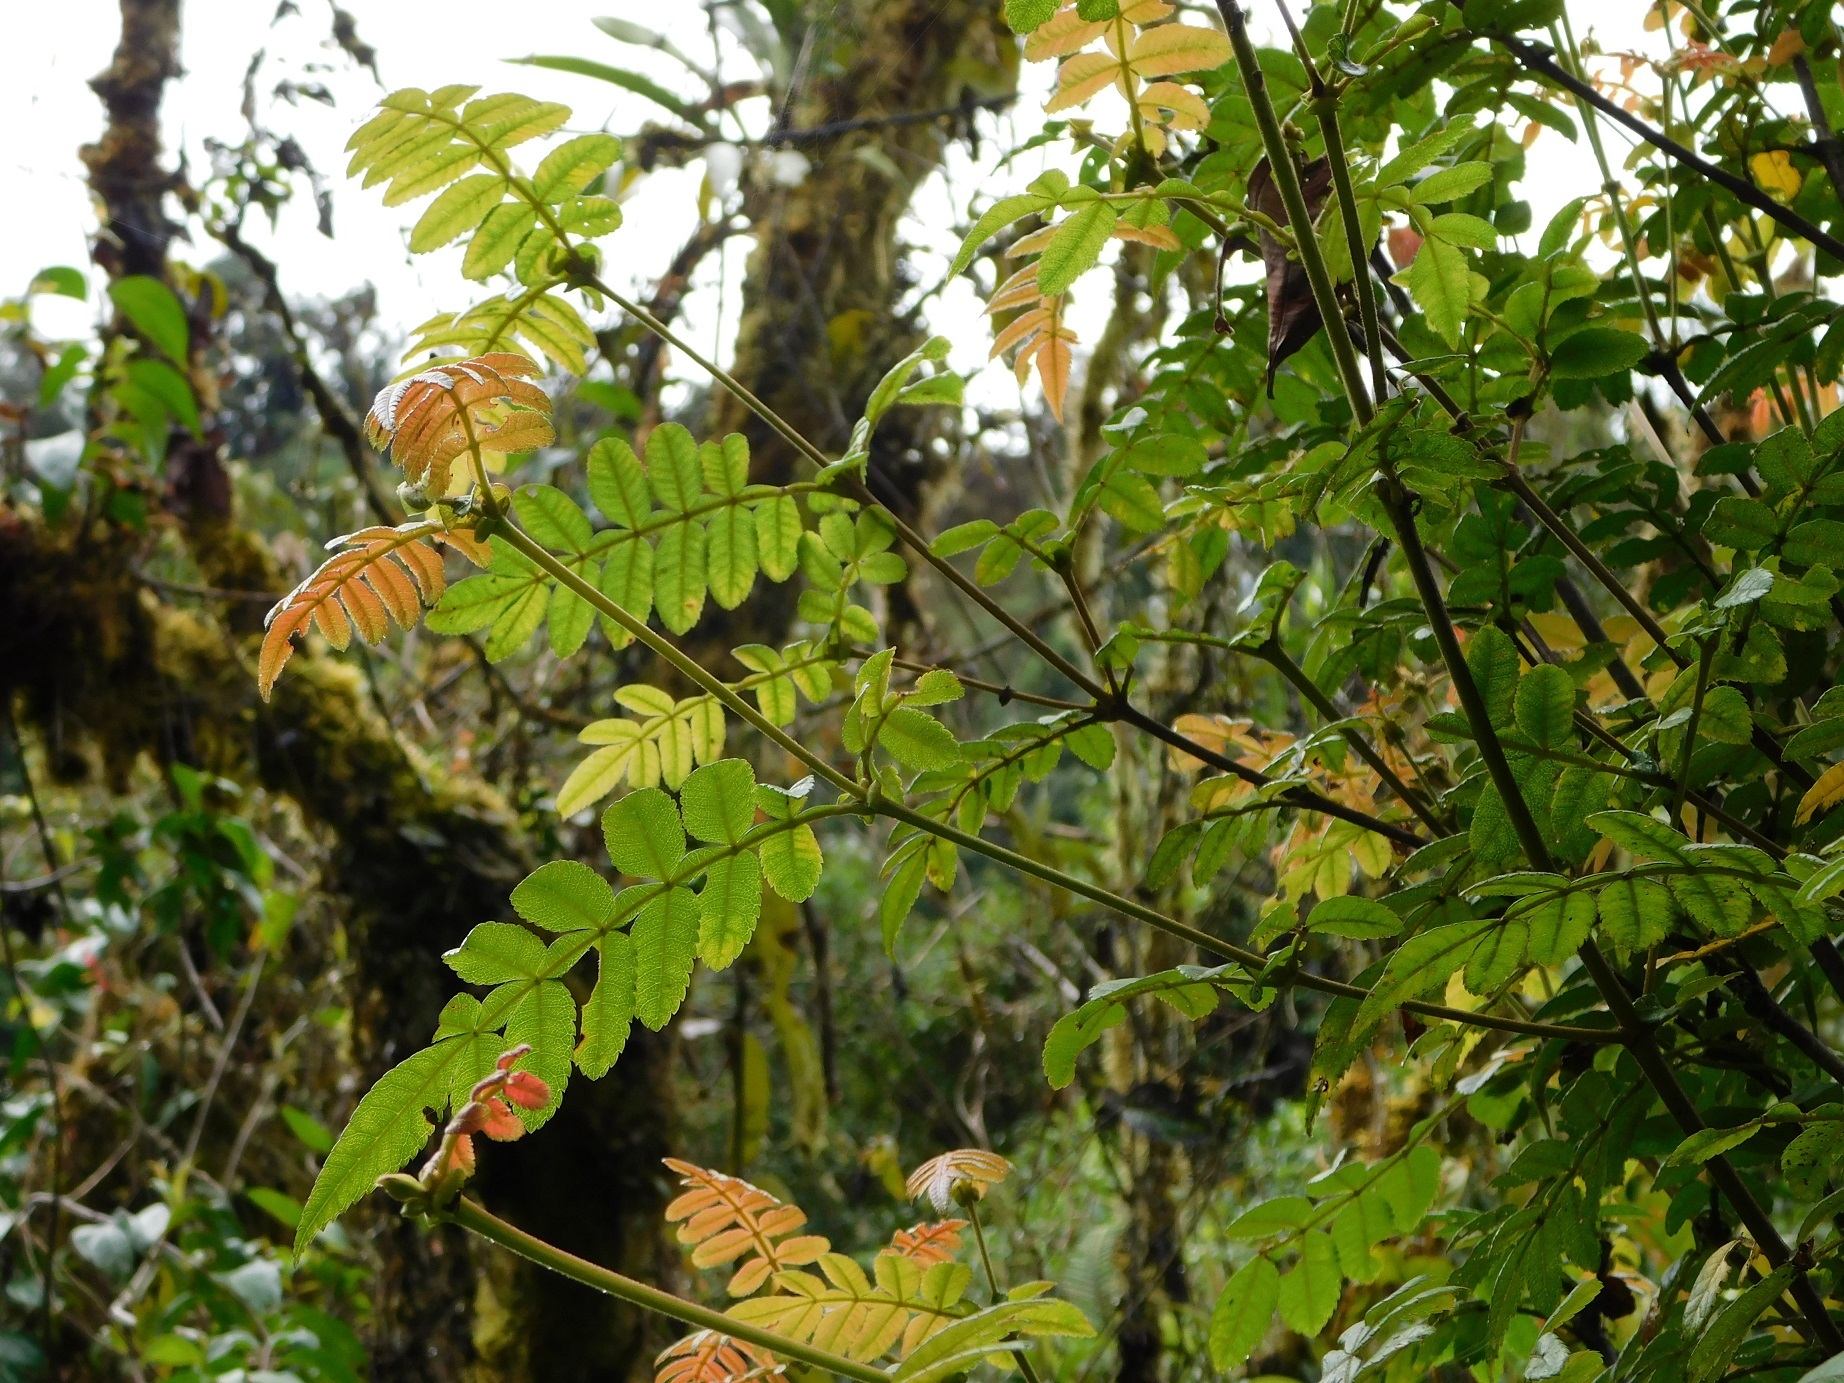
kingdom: Plantae
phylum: Tracheophyta
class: Magnoliopsida
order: Oxalidales
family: Cunoniaceae
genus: Weinmannia
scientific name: Weinmannia pubescens
